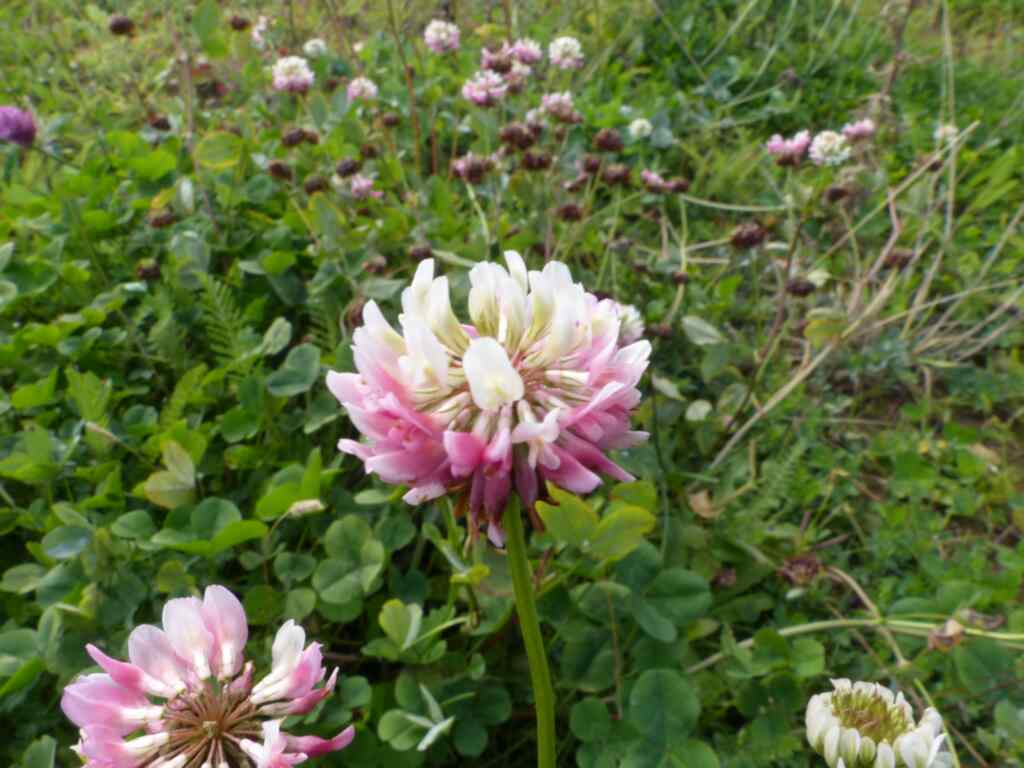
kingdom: Plantae
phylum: Tracheophyta
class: Magnoliopsida
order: Fabales
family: Fabaceae
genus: Trifolium
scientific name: Trifolium hybridum
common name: Alsike clover
